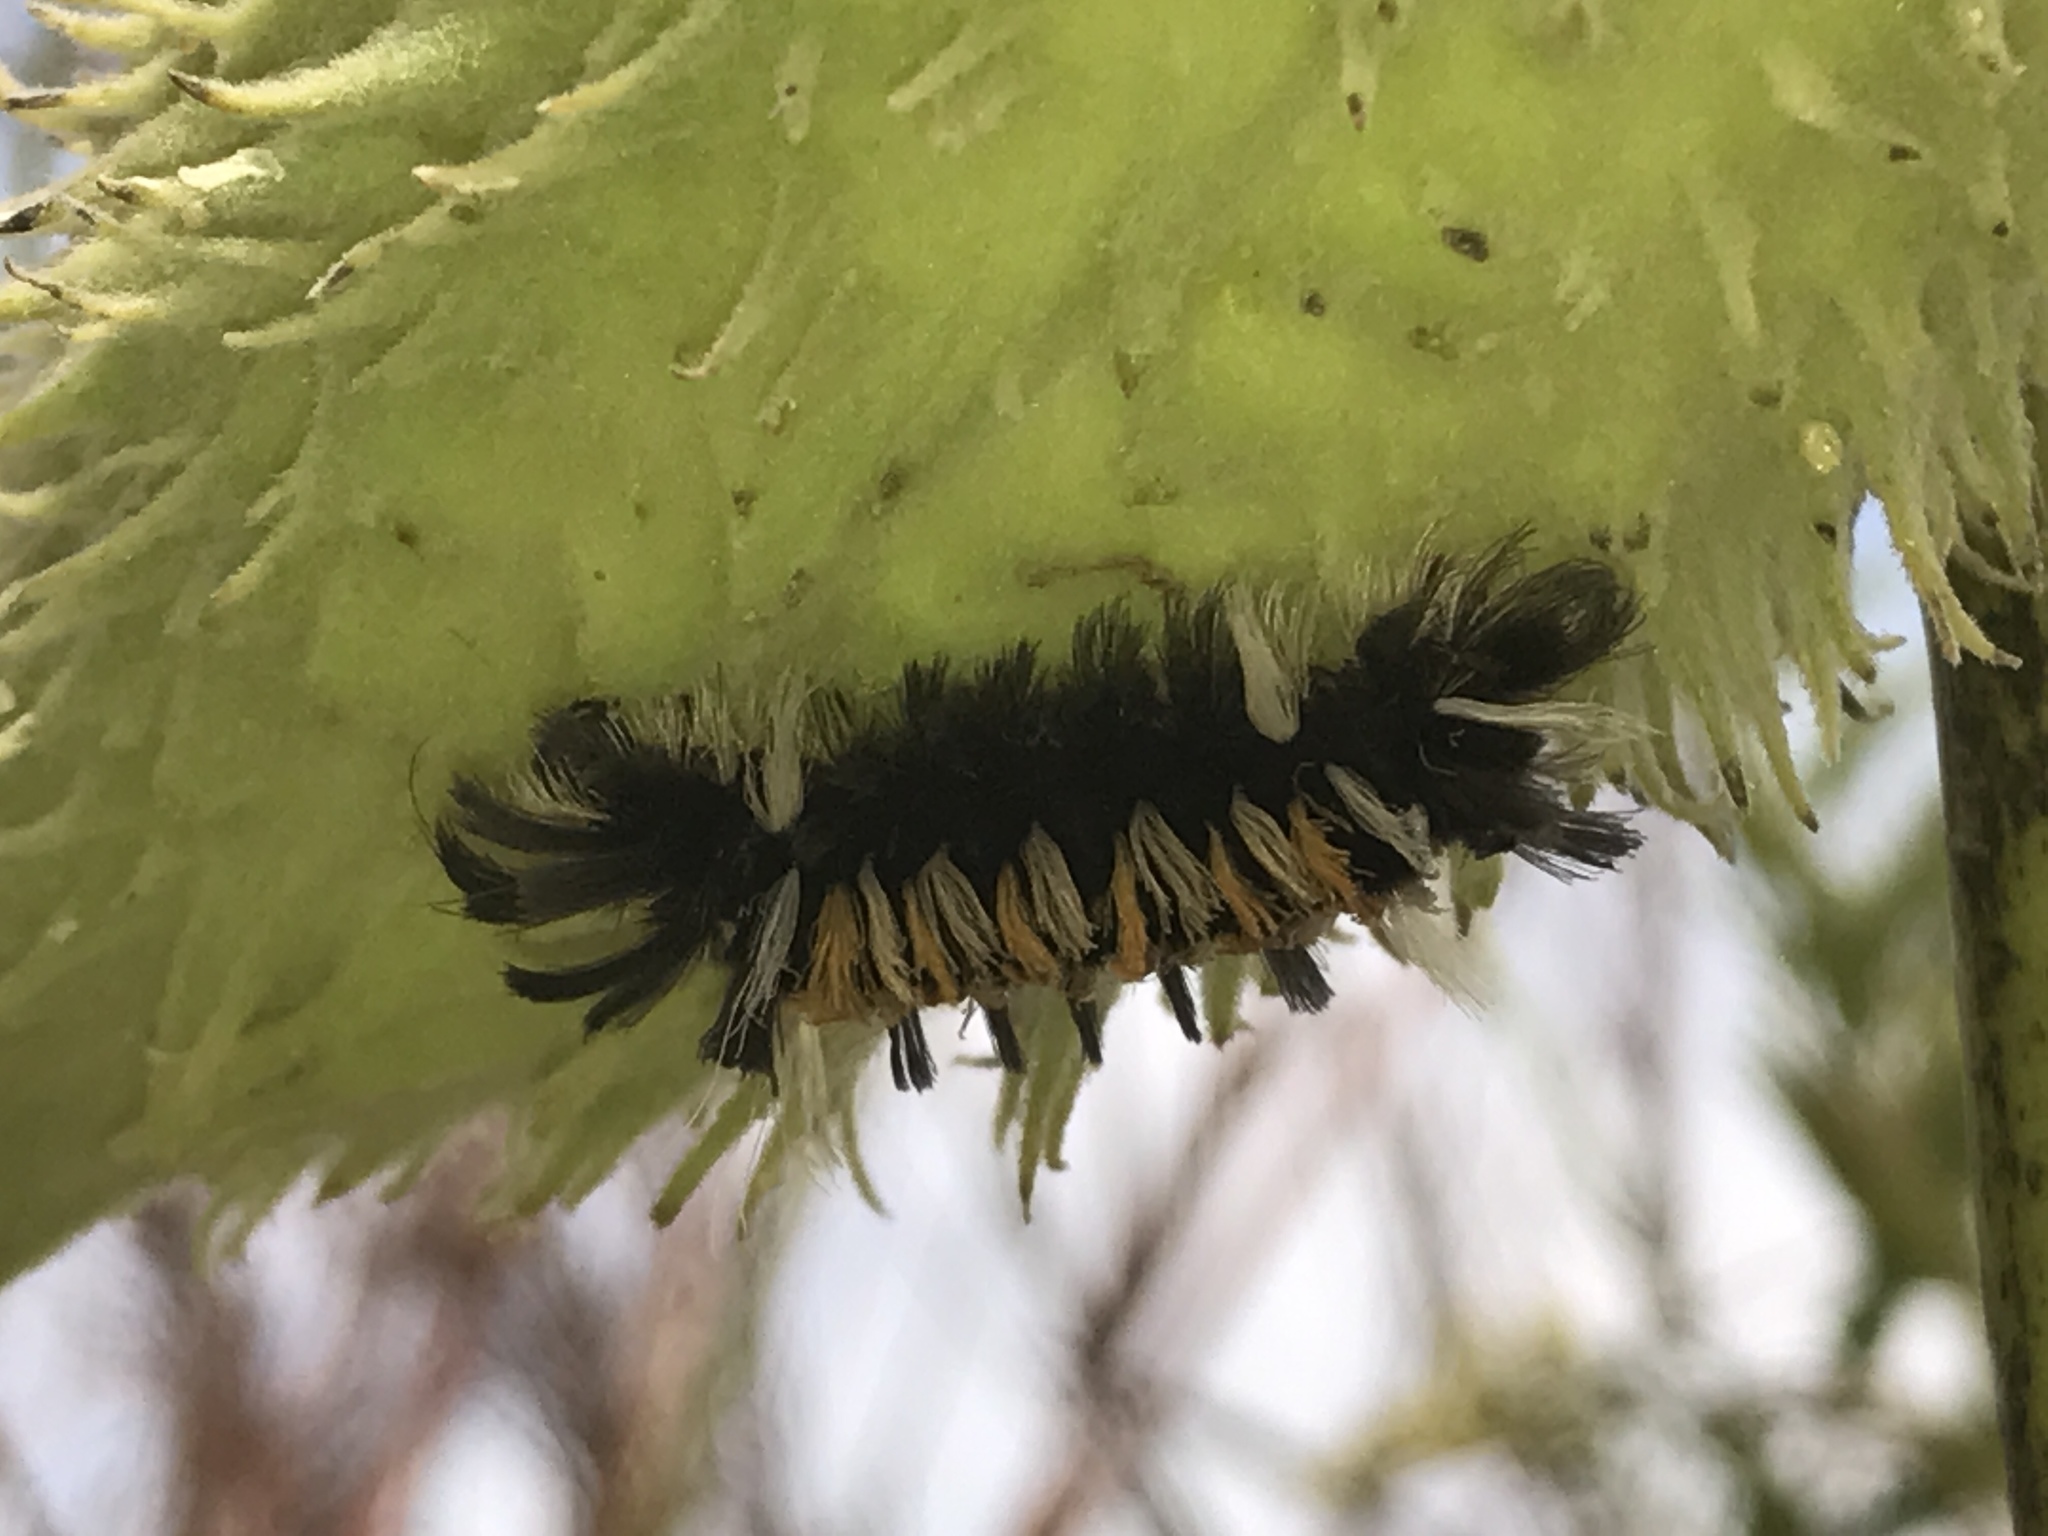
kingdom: Animalia
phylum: Arthropoda
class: Insecta
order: Lepidoptera
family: Erebidae
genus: Euchaetes
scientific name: Euchaetes egle
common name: Milkweed tussock moth
